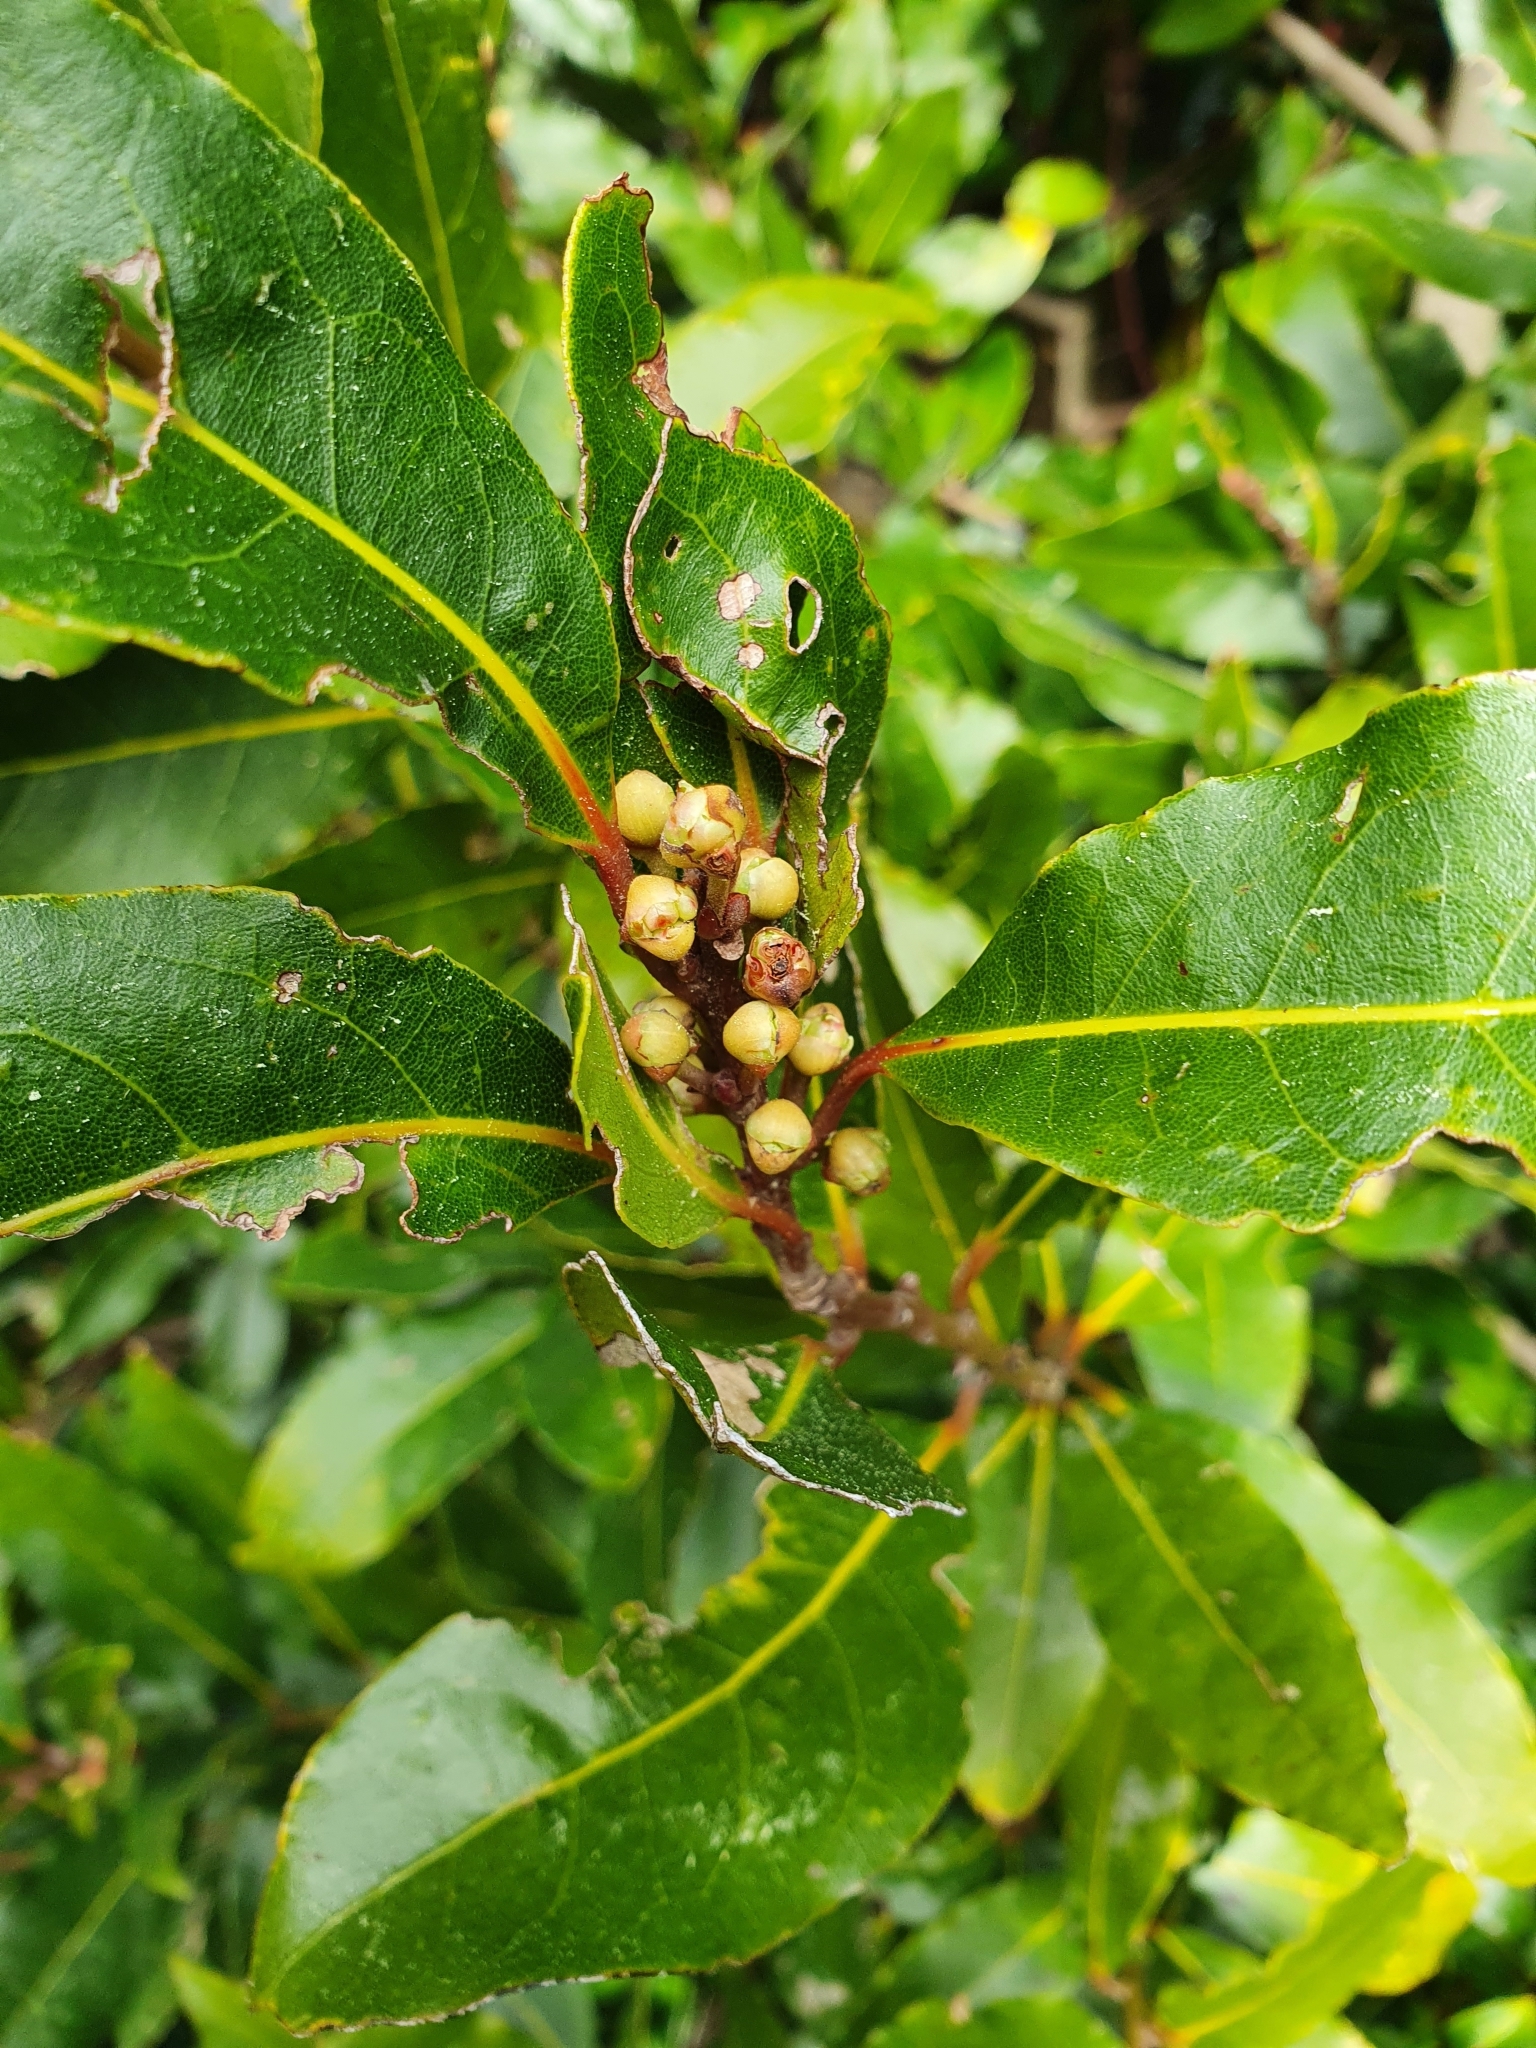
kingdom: Plantae
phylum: Tracheophyta
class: Magnoliopsida
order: Laurales
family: Lauraceae
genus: Laurus
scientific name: Laurus nobilis
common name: Bay
